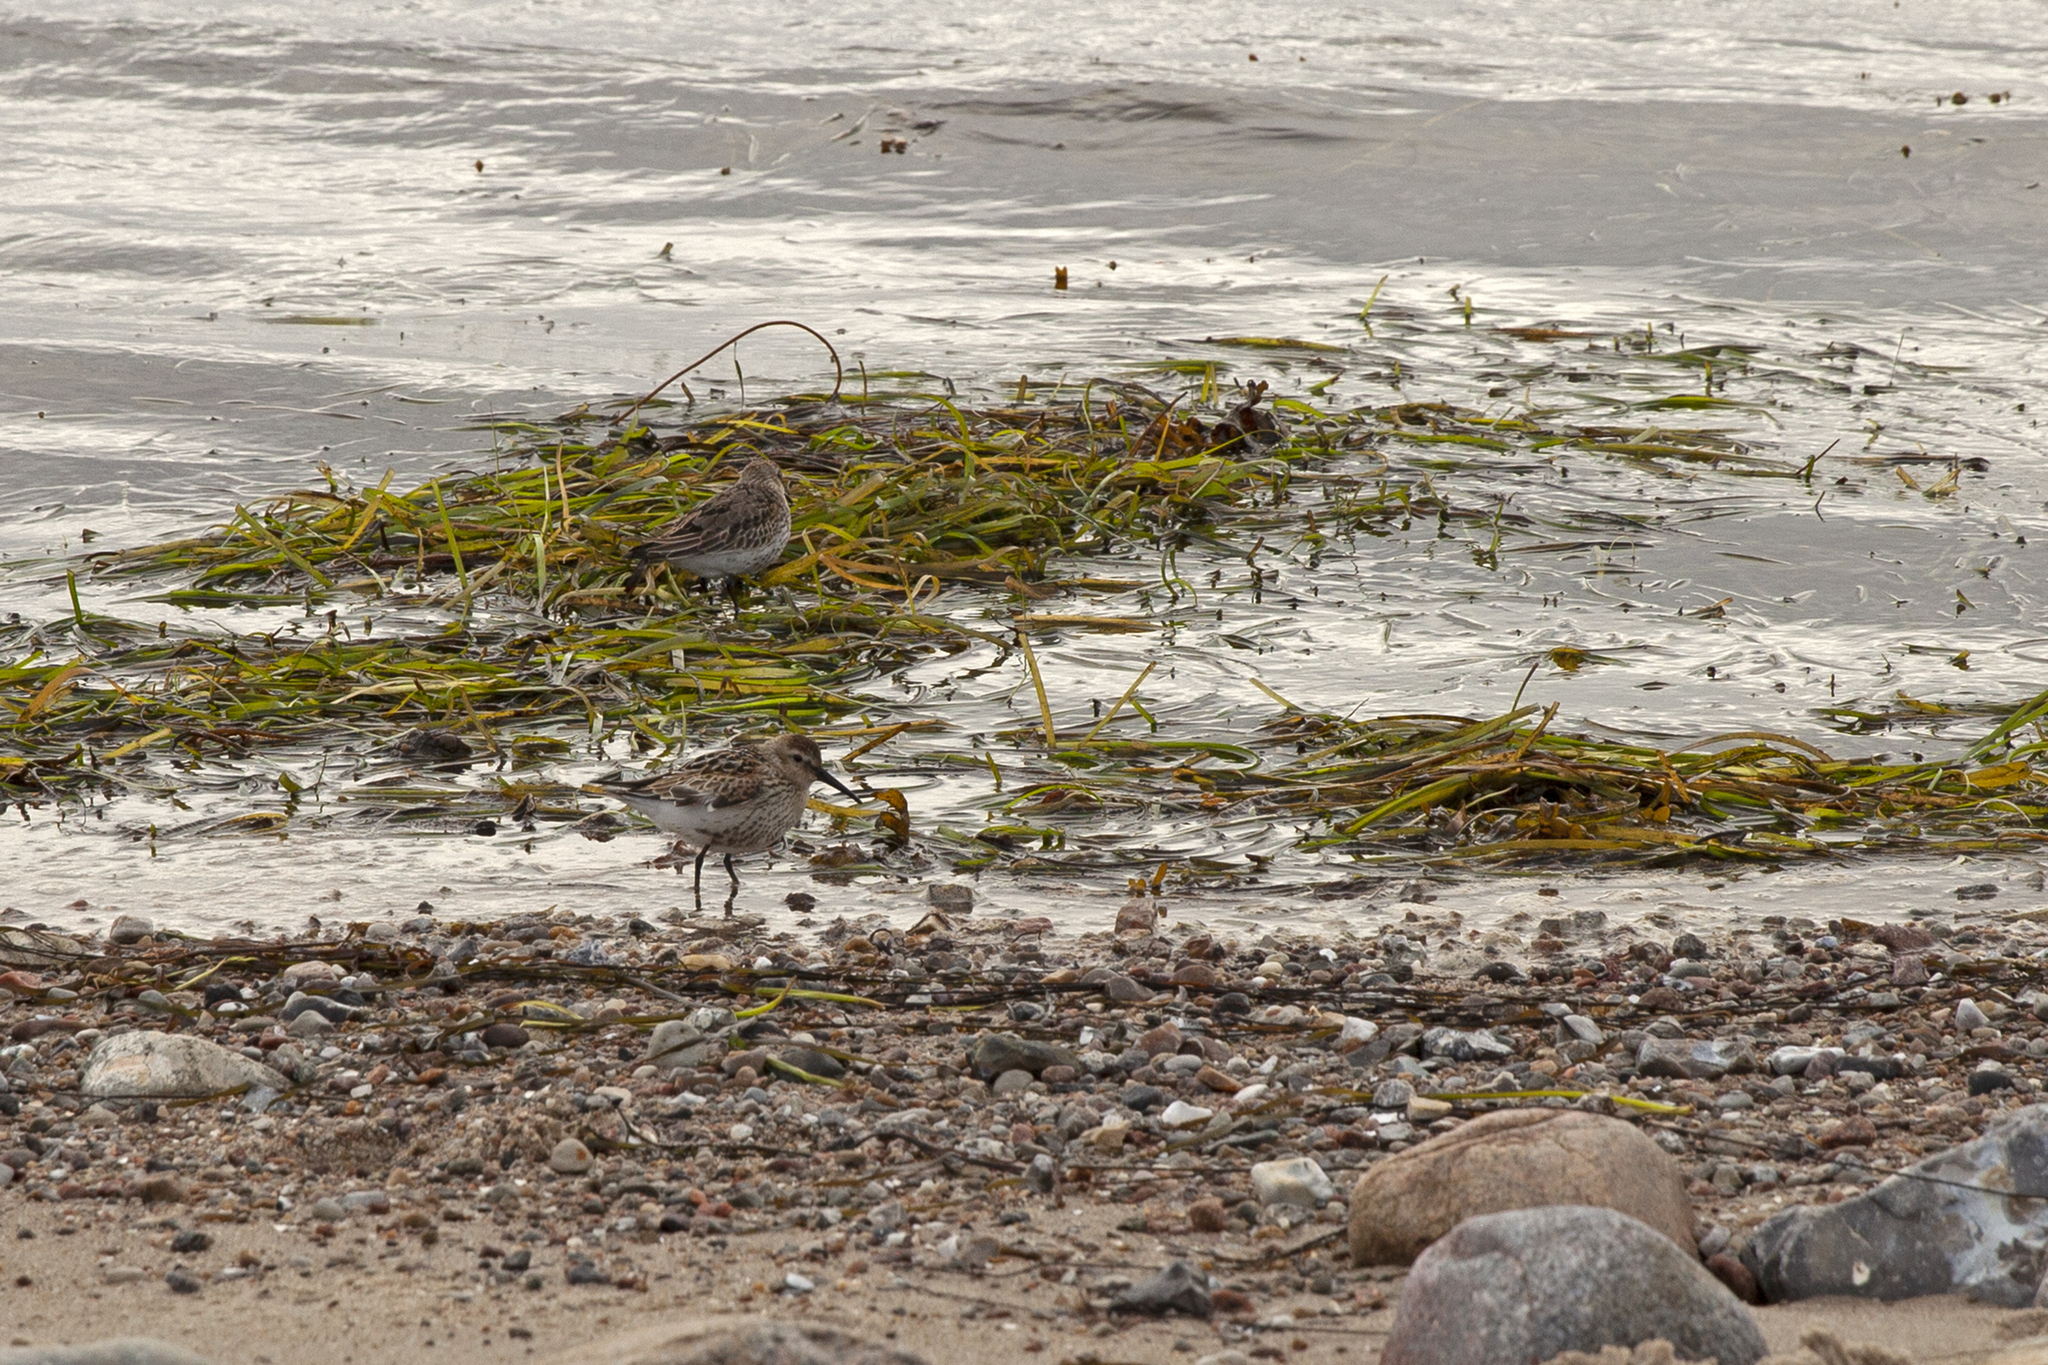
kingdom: Animalia
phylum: Chordata
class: Aves
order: Charadriiformes
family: Scolopacidae
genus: Calidris
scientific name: Calidris alpina
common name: Dunlin
